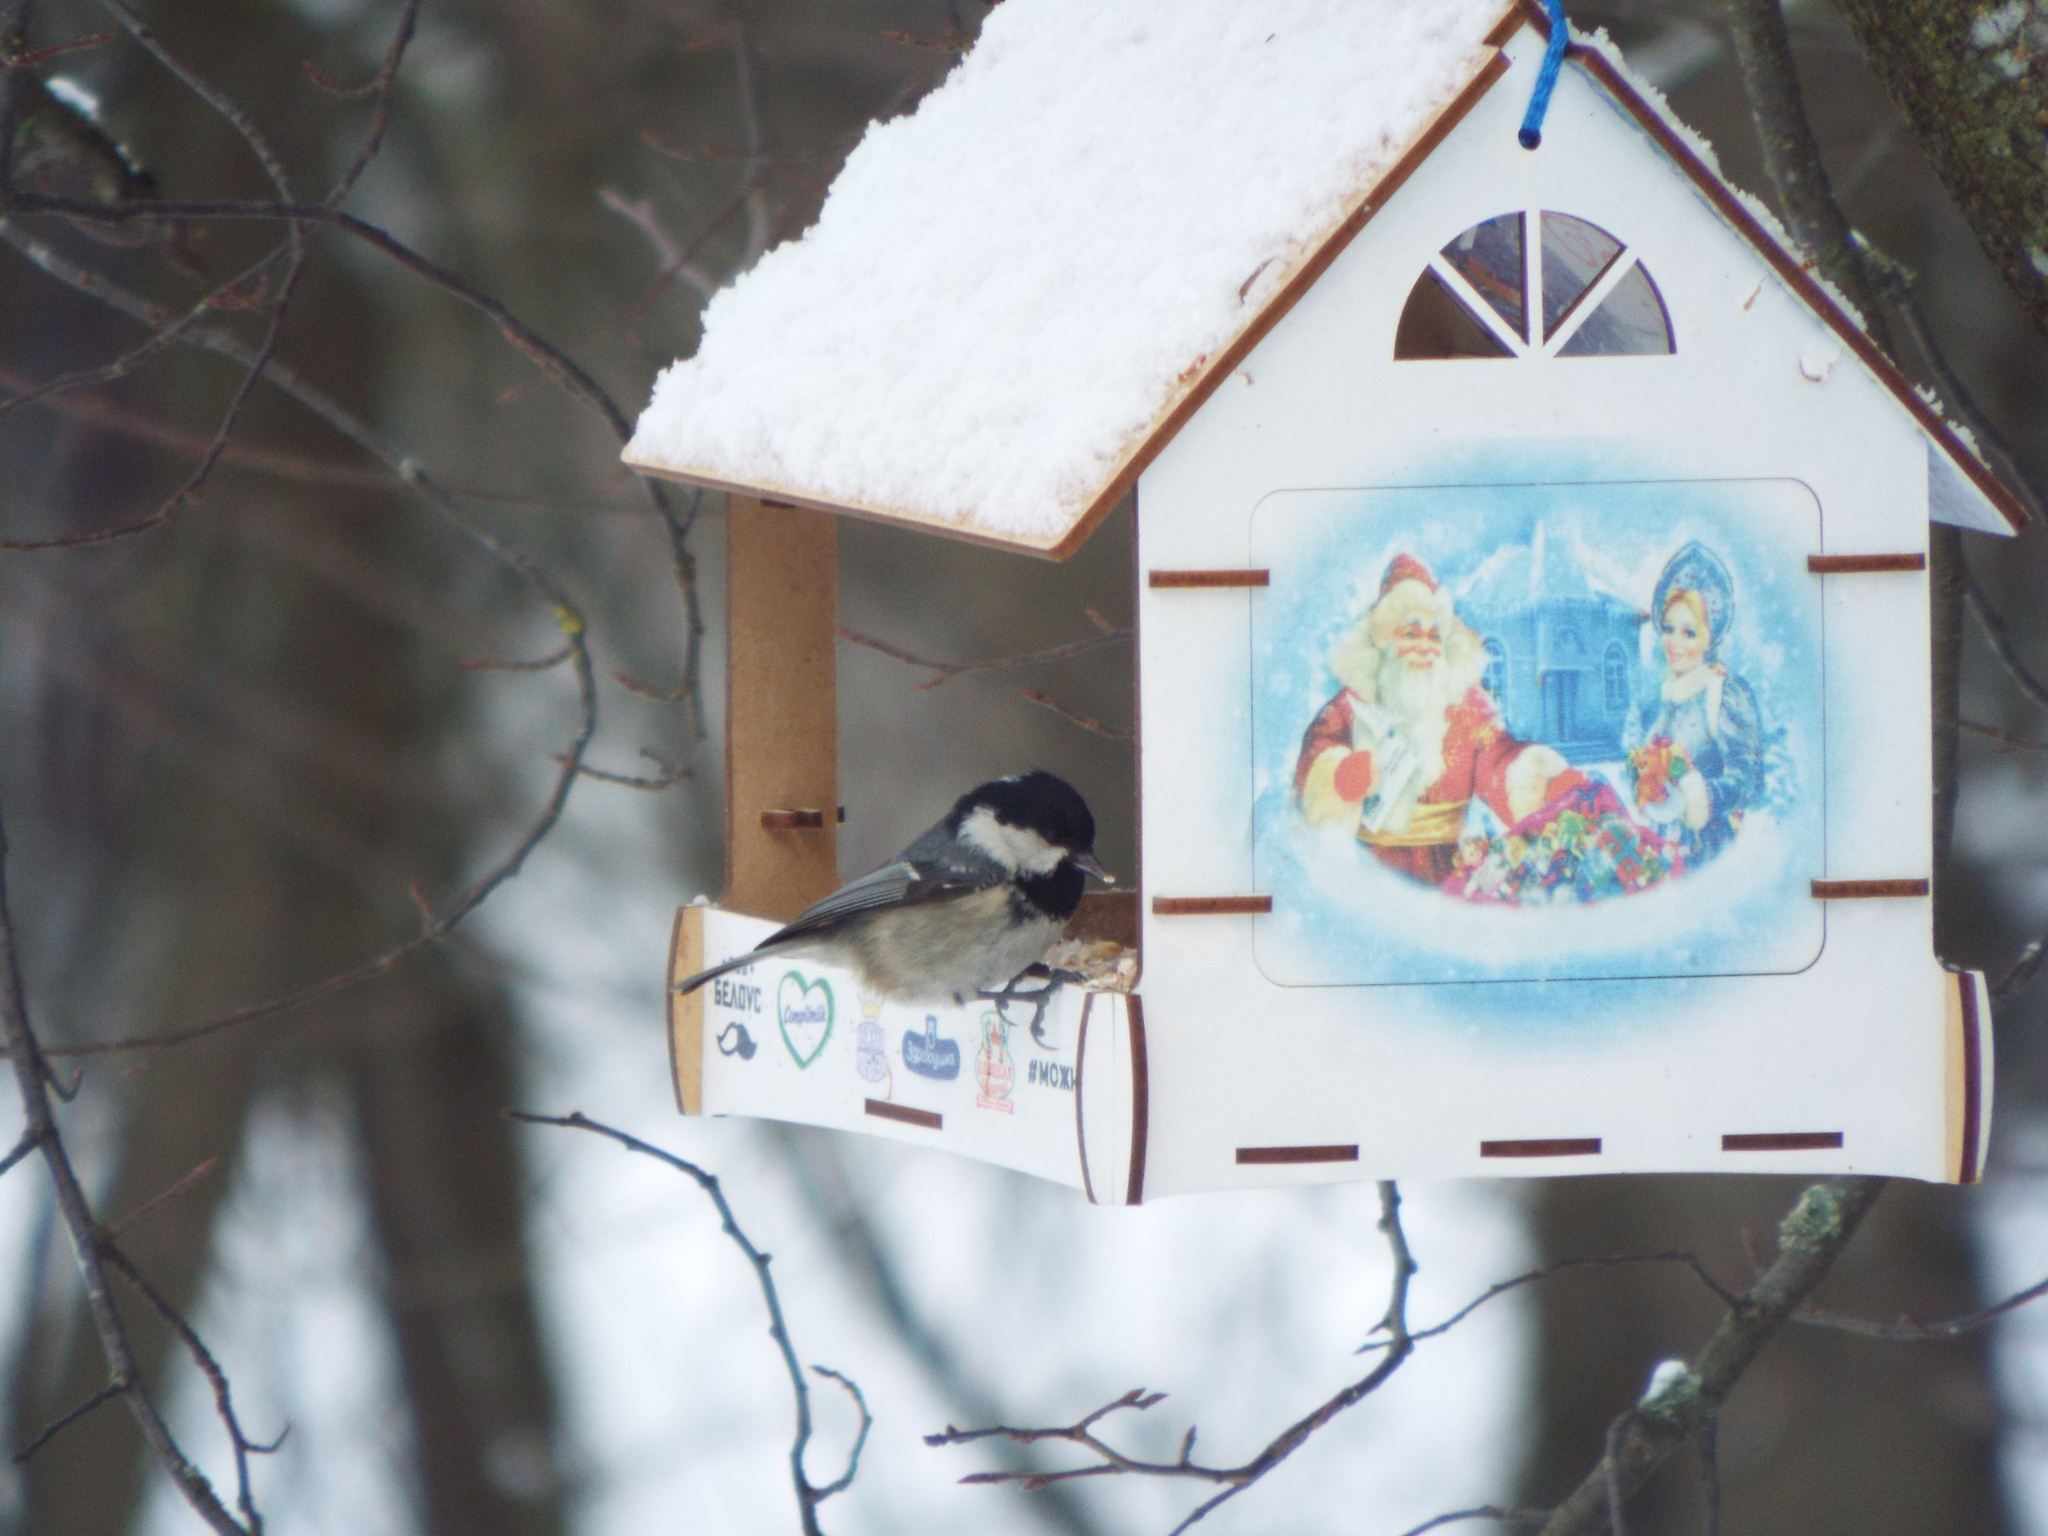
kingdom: Animalia
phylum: Chordata
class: Aves
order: Passeriformes
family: Paridae
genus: Periparus
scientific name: Periparus ater
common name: Coal tit
